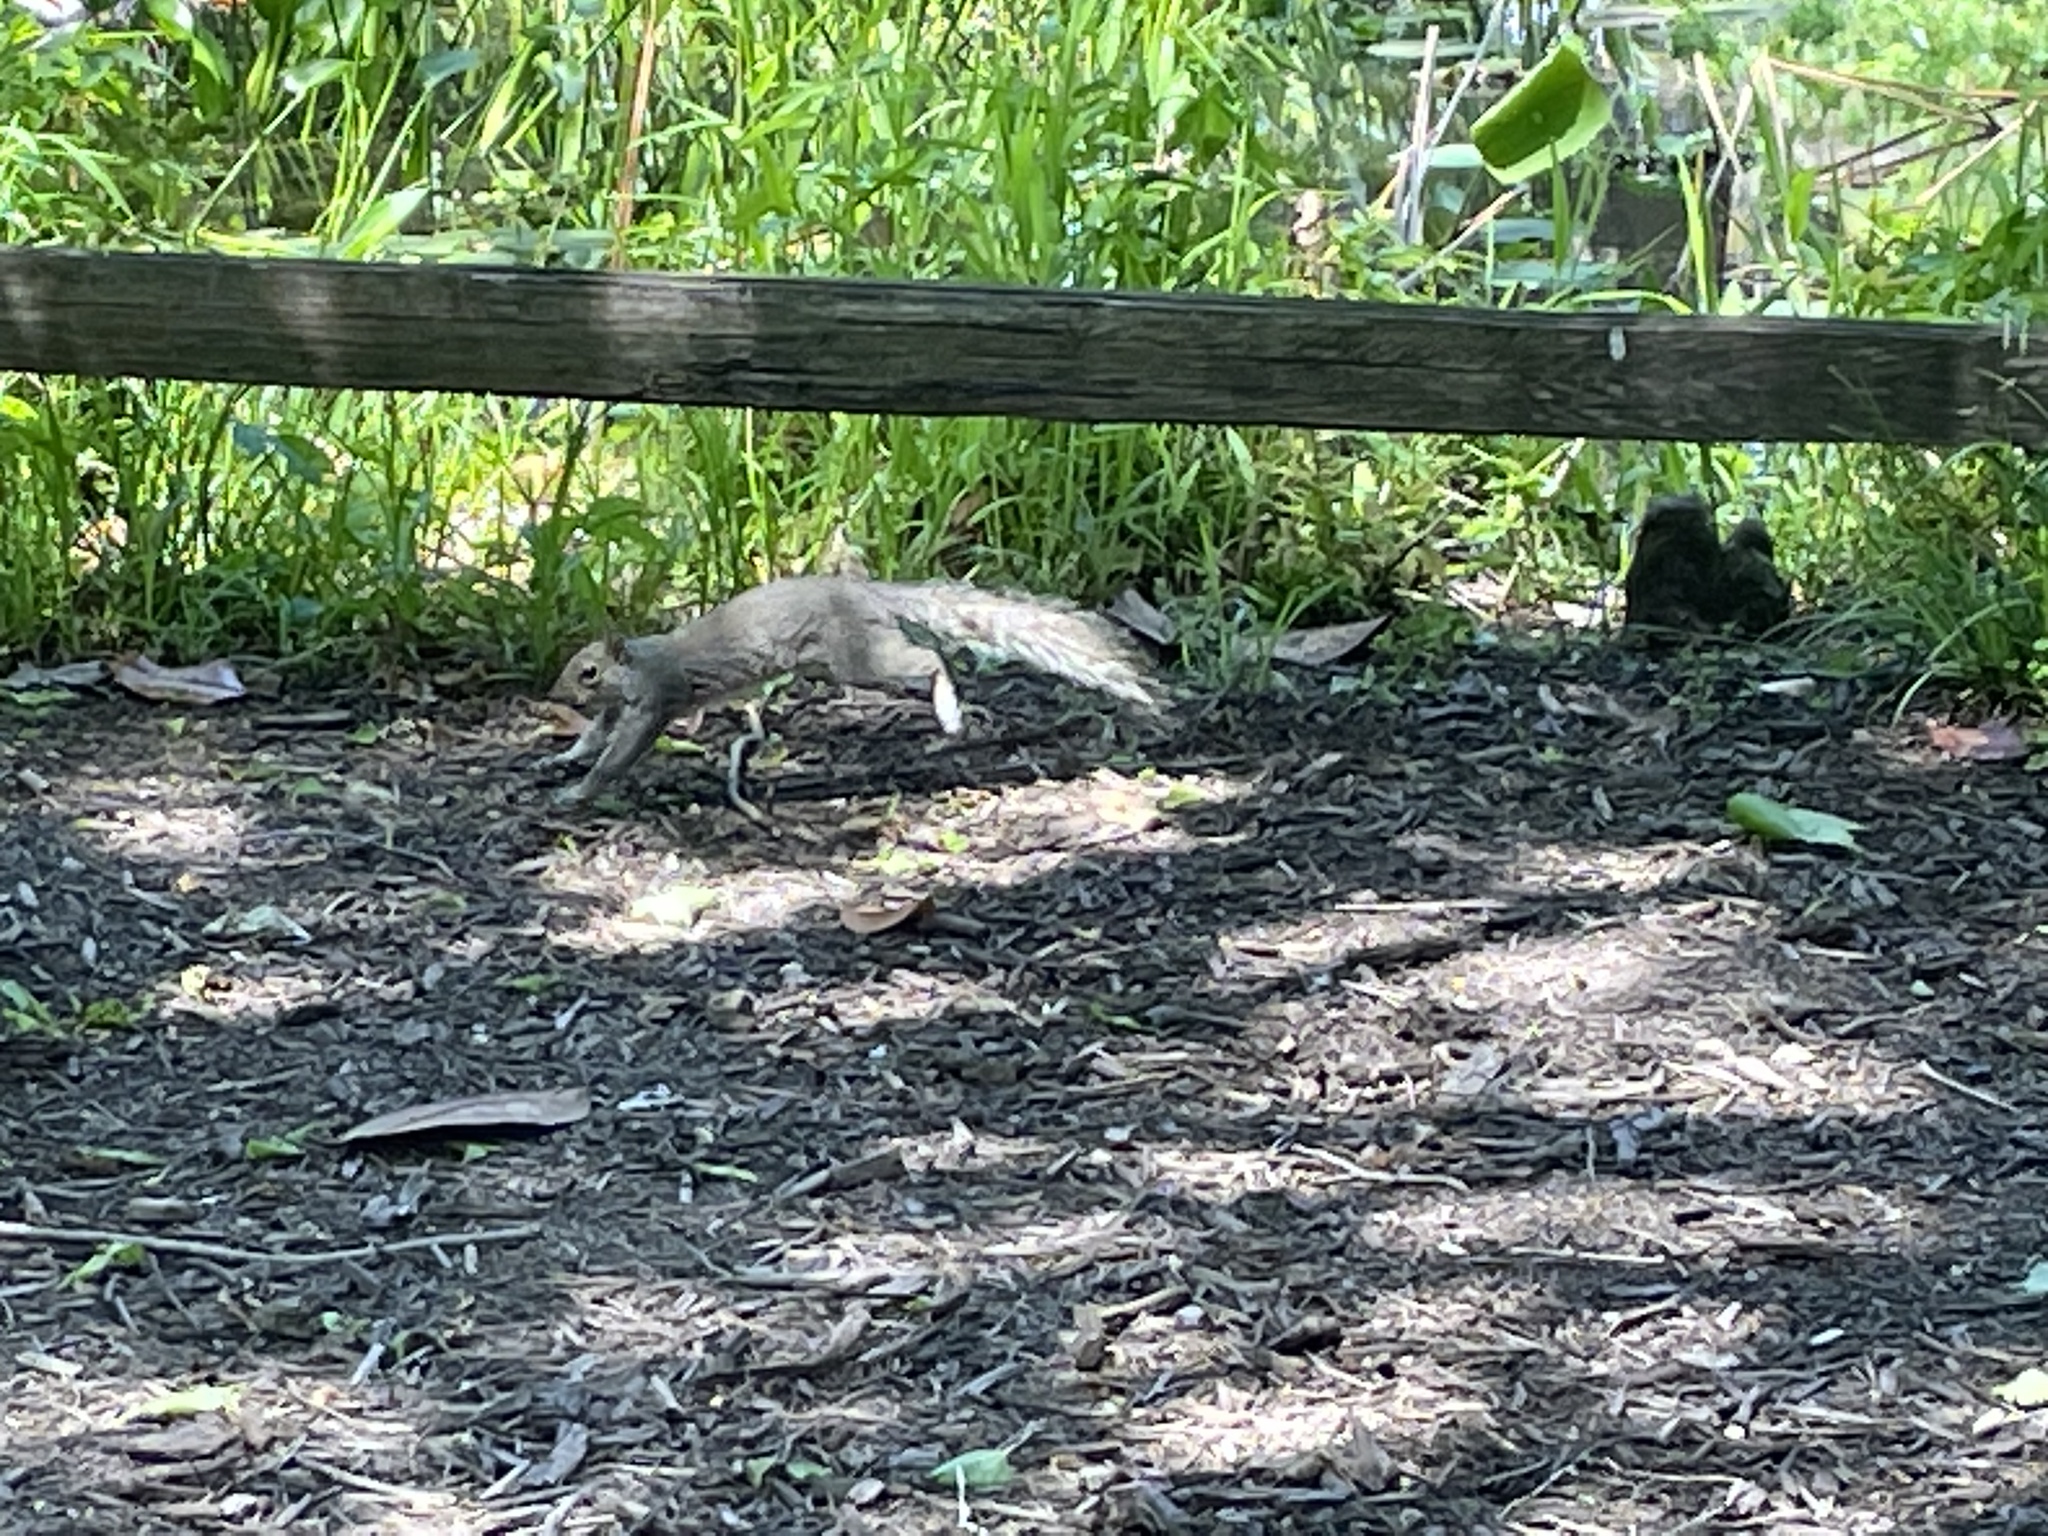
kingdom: Animalia
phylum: Chordata
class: Mammalia
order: Rodentia
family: Sciuridae
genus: Sciurus
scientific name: Sciurus carolinensis
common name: Eastern gray squirrel
